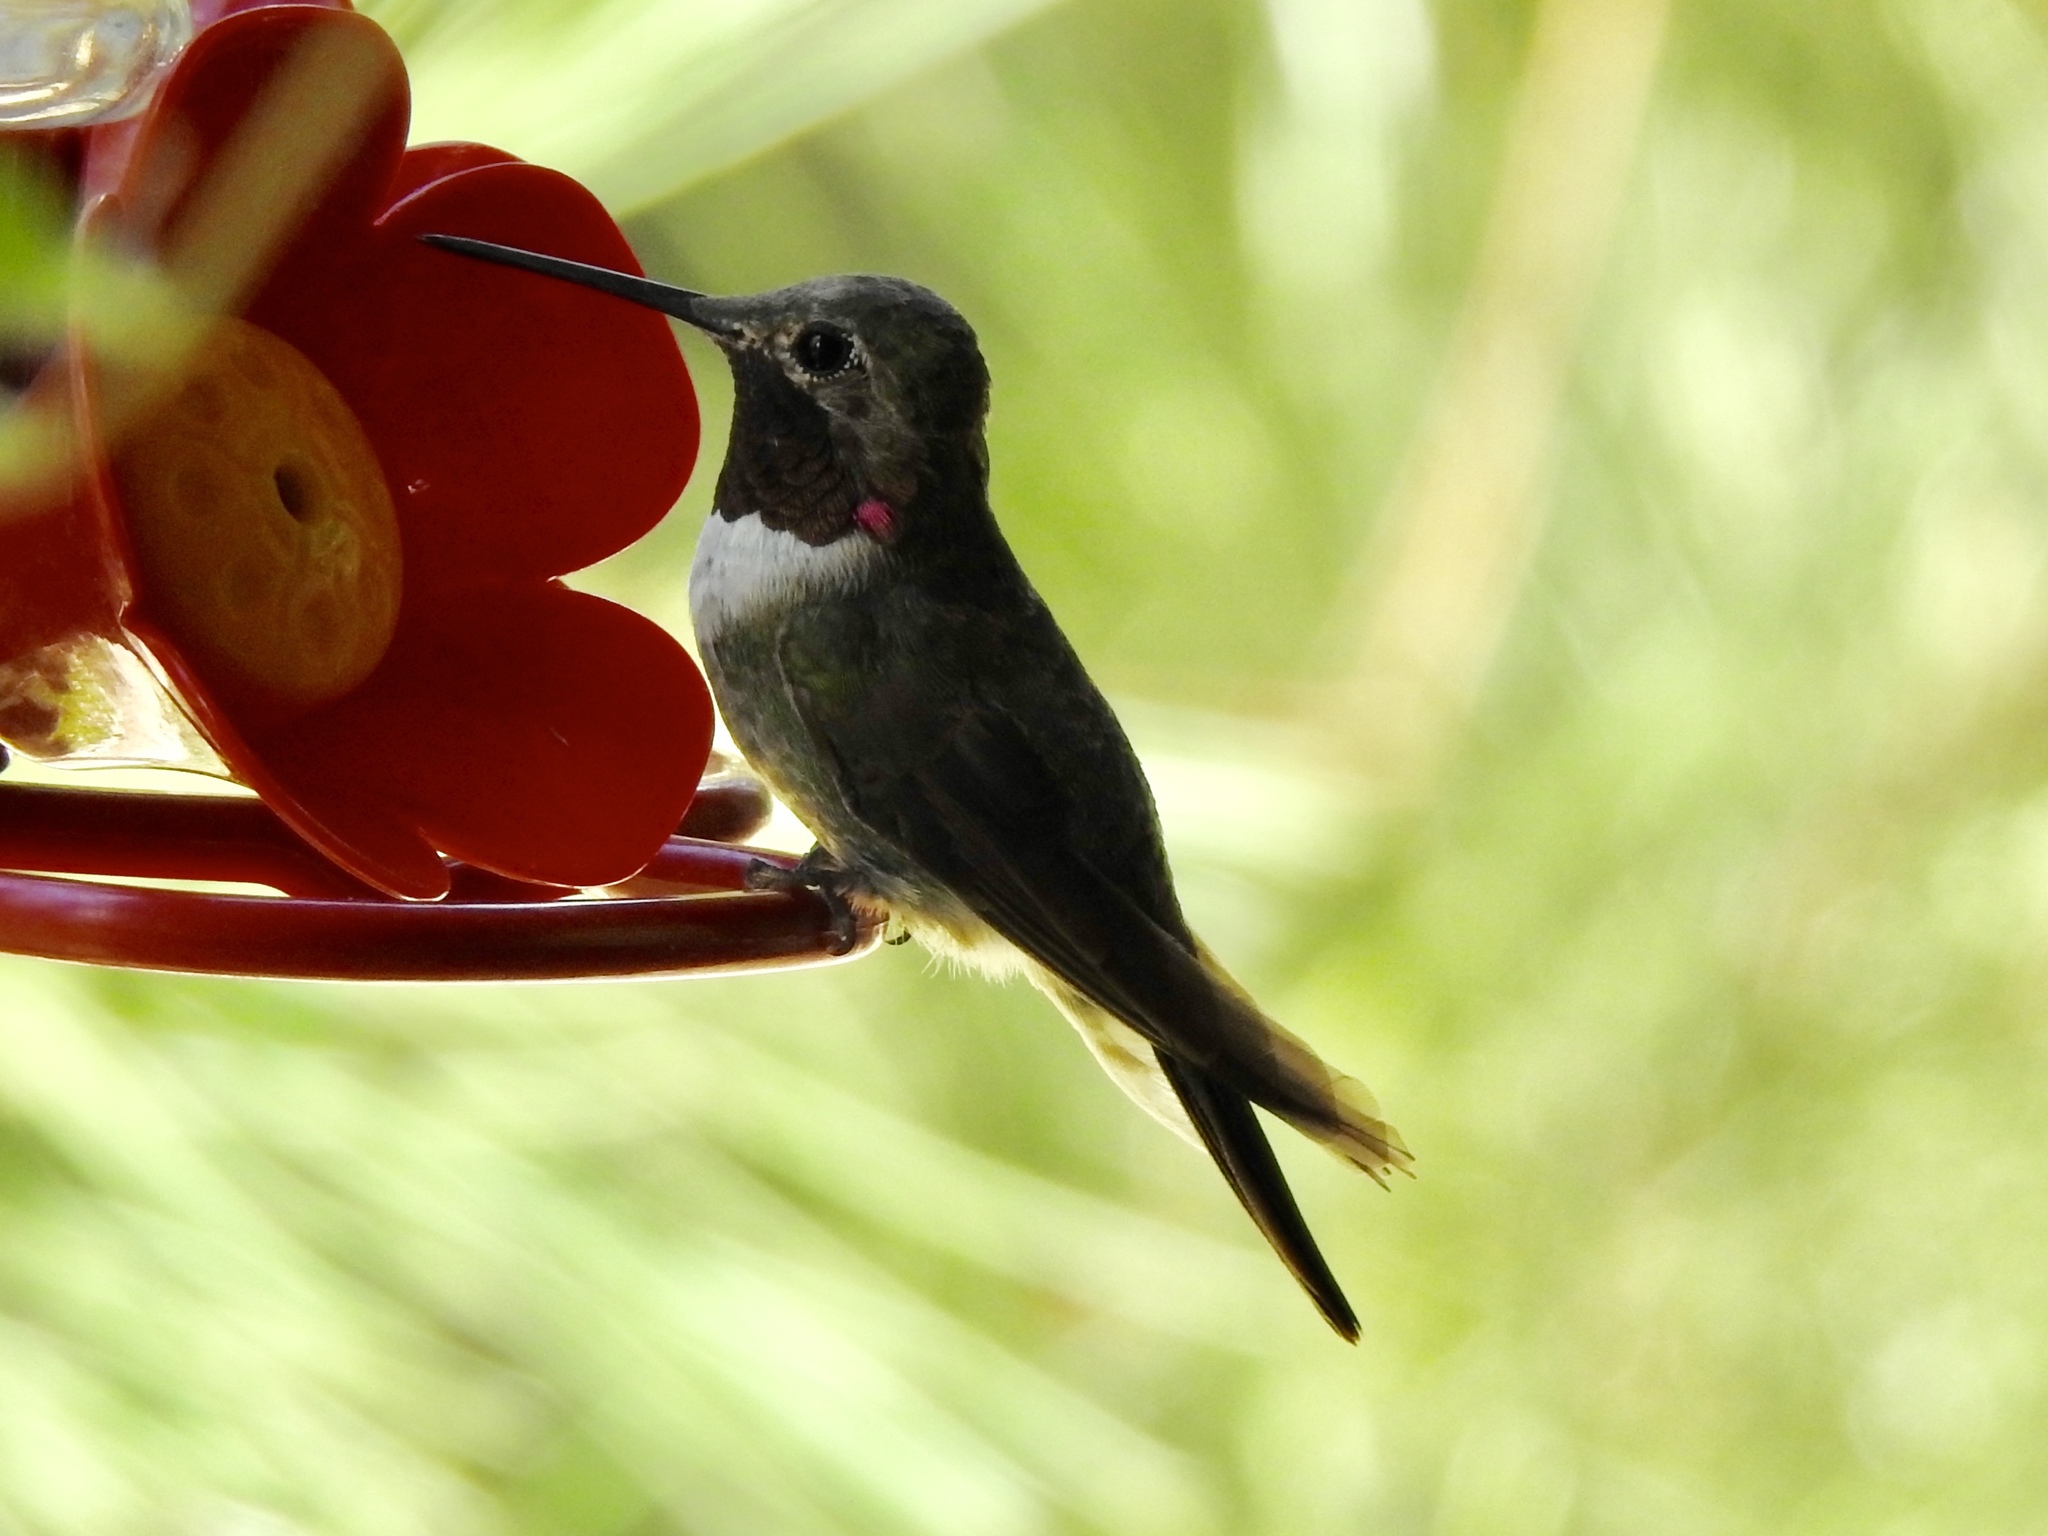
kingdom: Animalia
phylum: Chordata
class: Aves
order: Apodiformes
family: Trochilidae
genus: Selasphorus
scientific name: Selasphorus platycercus
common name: Broad-tailed hummingbird
